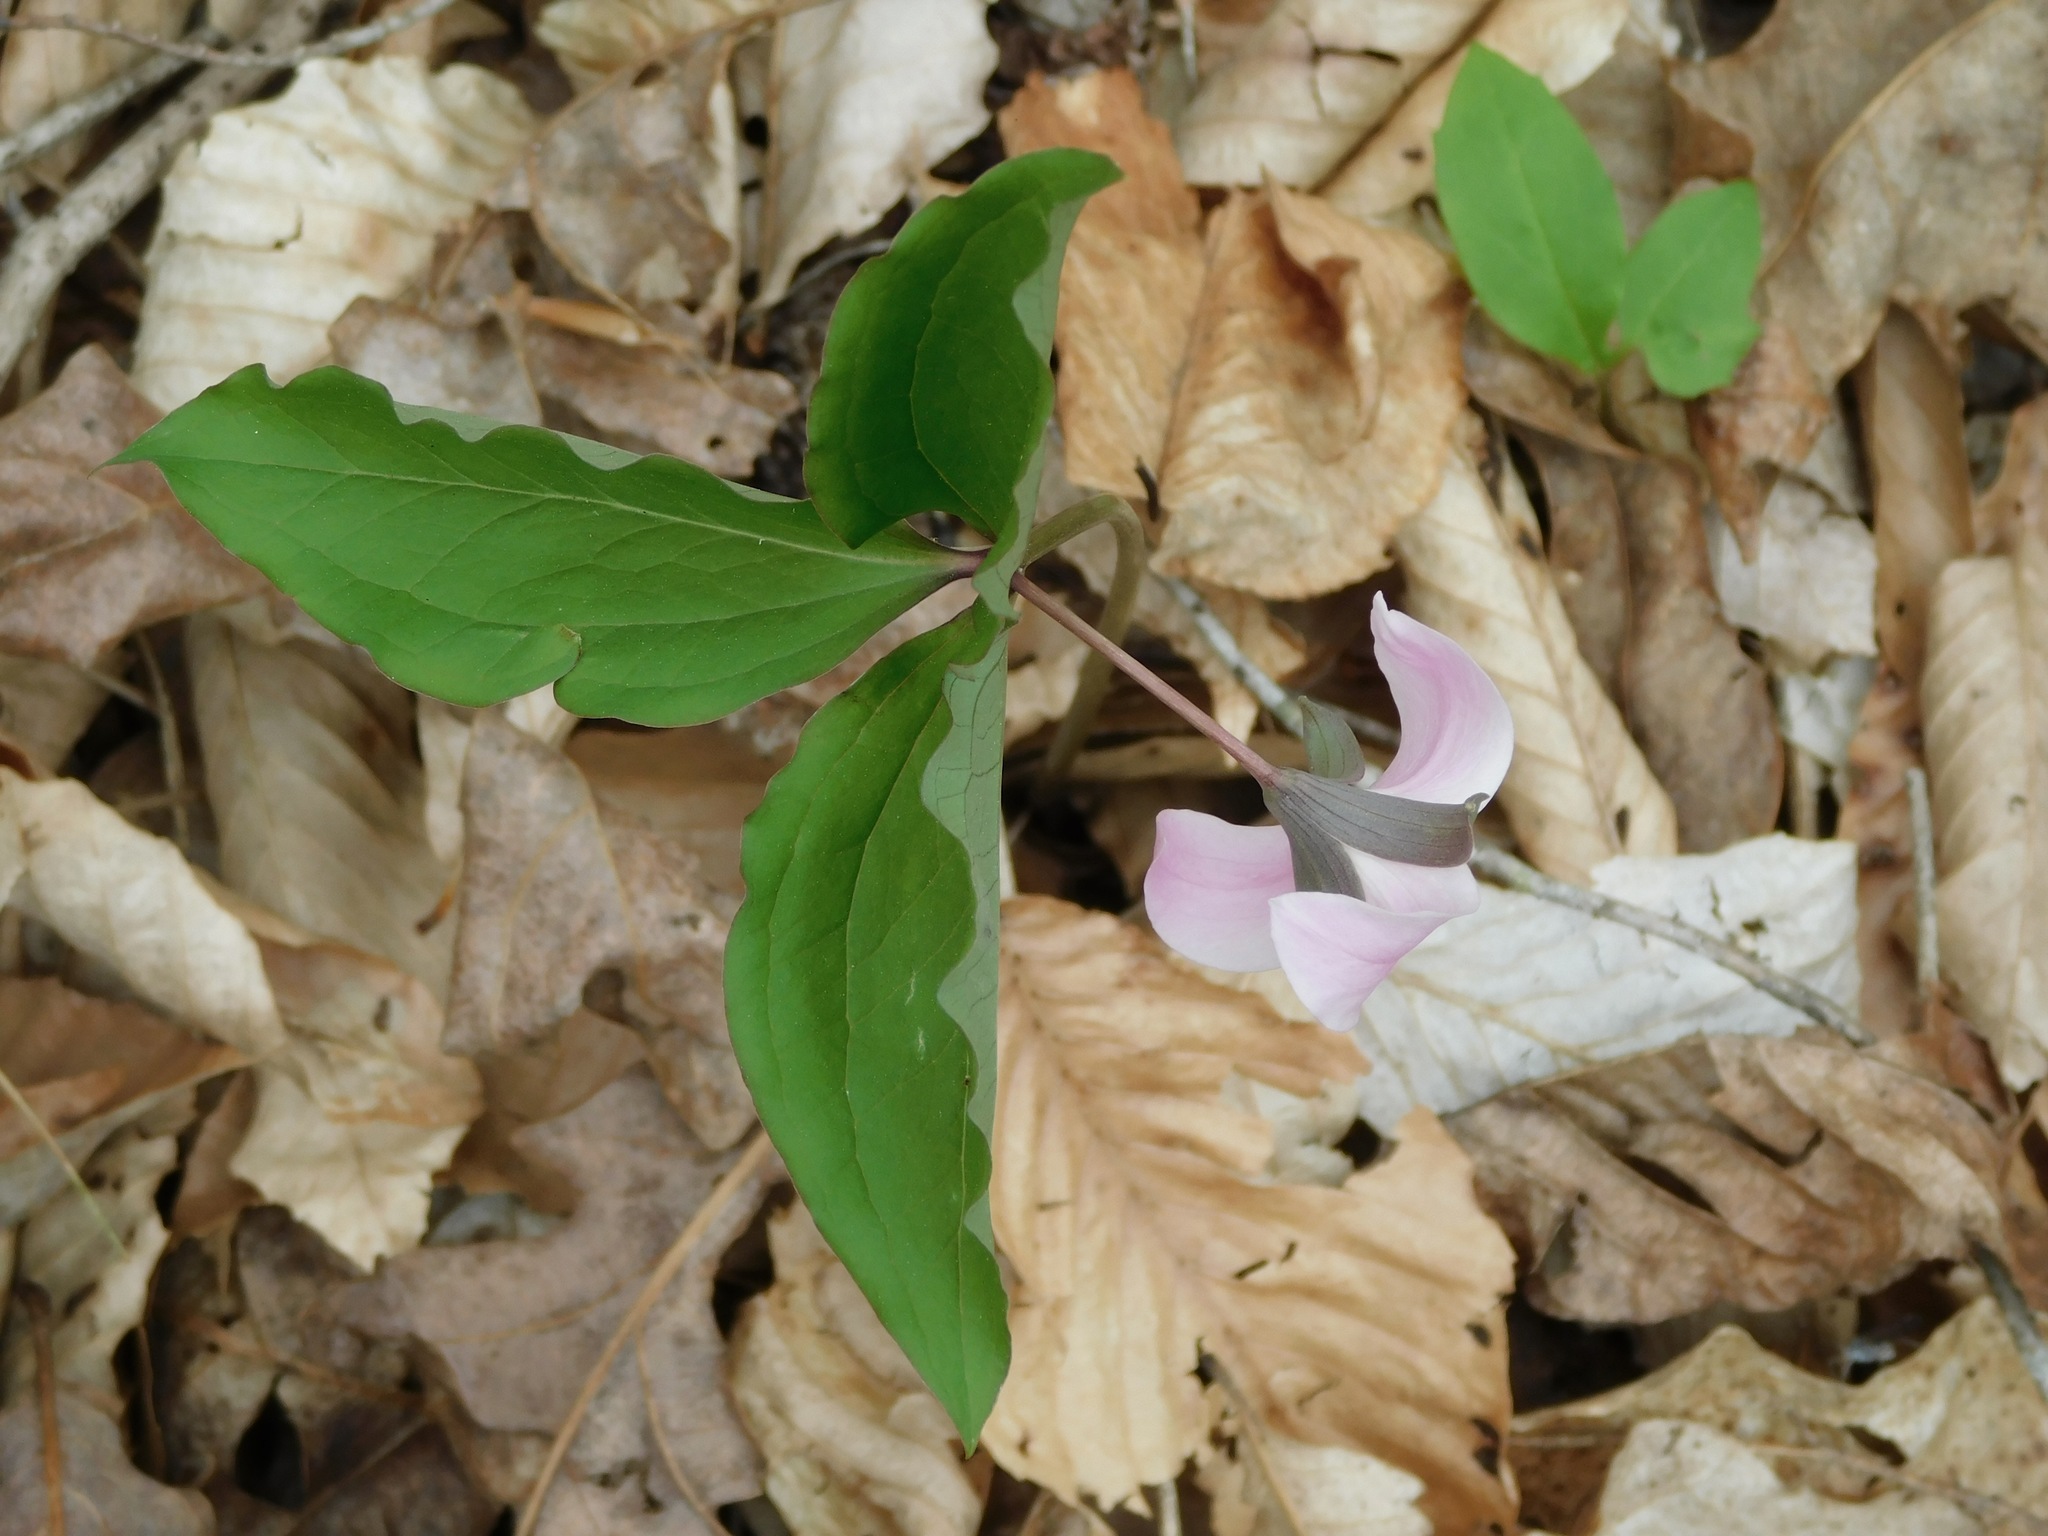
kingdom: Plantae
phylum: Tracheophyta
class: Liliopsida
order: Liliales
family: Melanthiaceae
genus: Trillium
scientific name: Trillium catesbaei
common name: Bashful trillium
